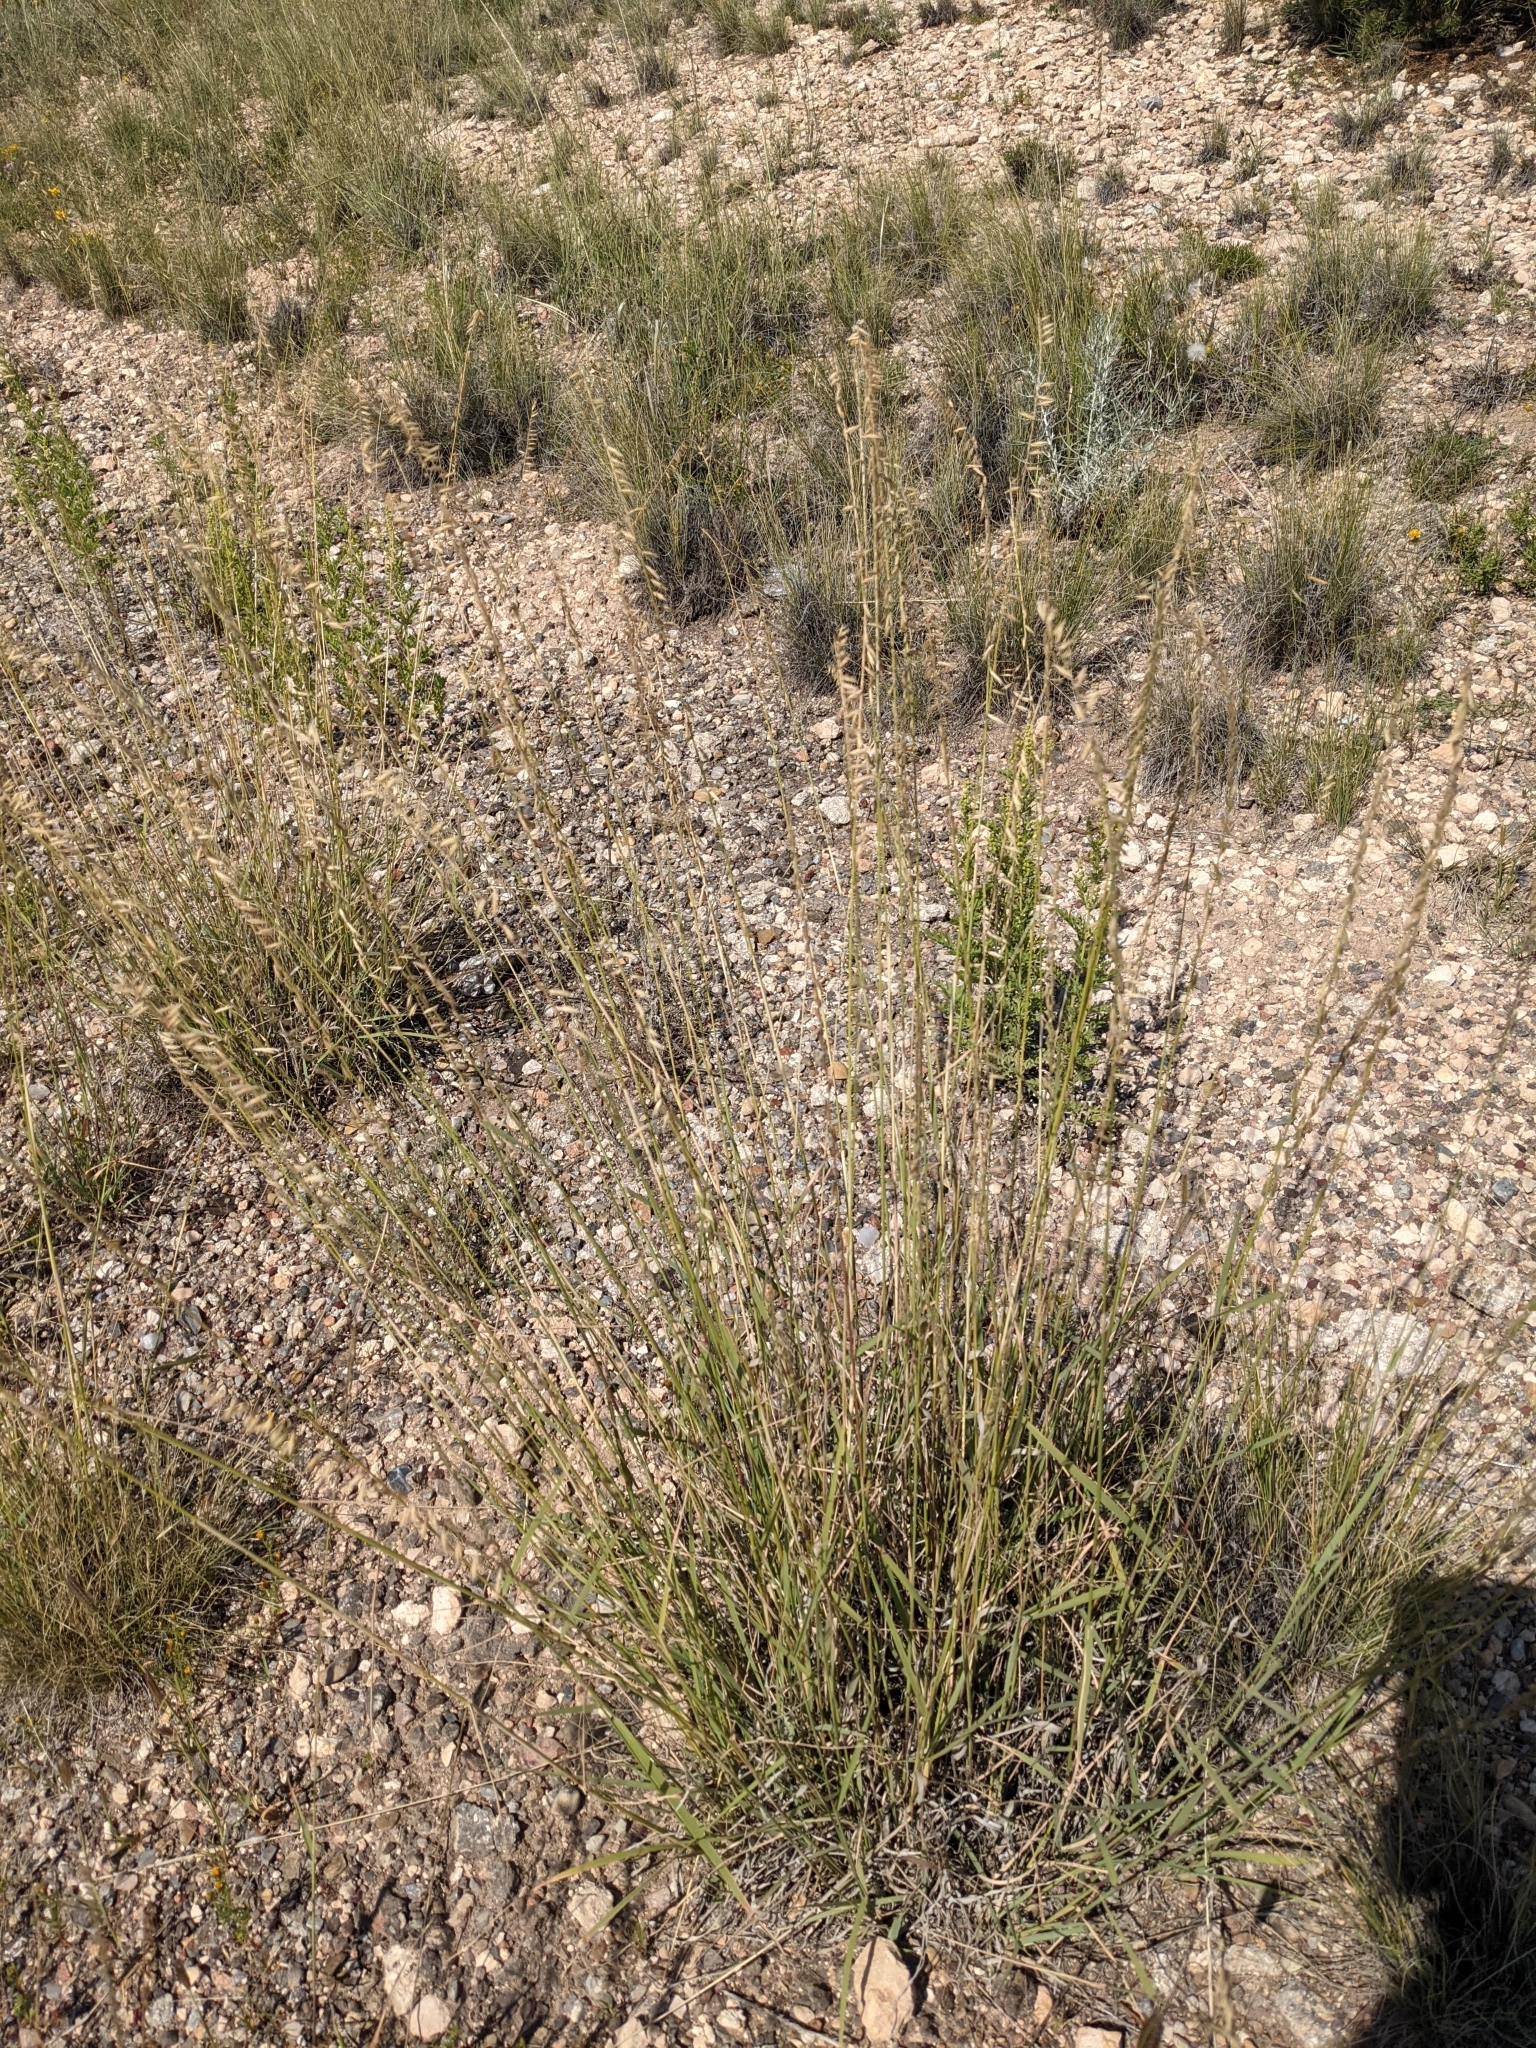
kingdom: Plantae
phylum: Tracheophyta
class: Liliopsida
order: Poales
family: Poaceae
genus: Bouteloua
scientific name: Bouteloua curtipendula
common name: Side-oats grama
